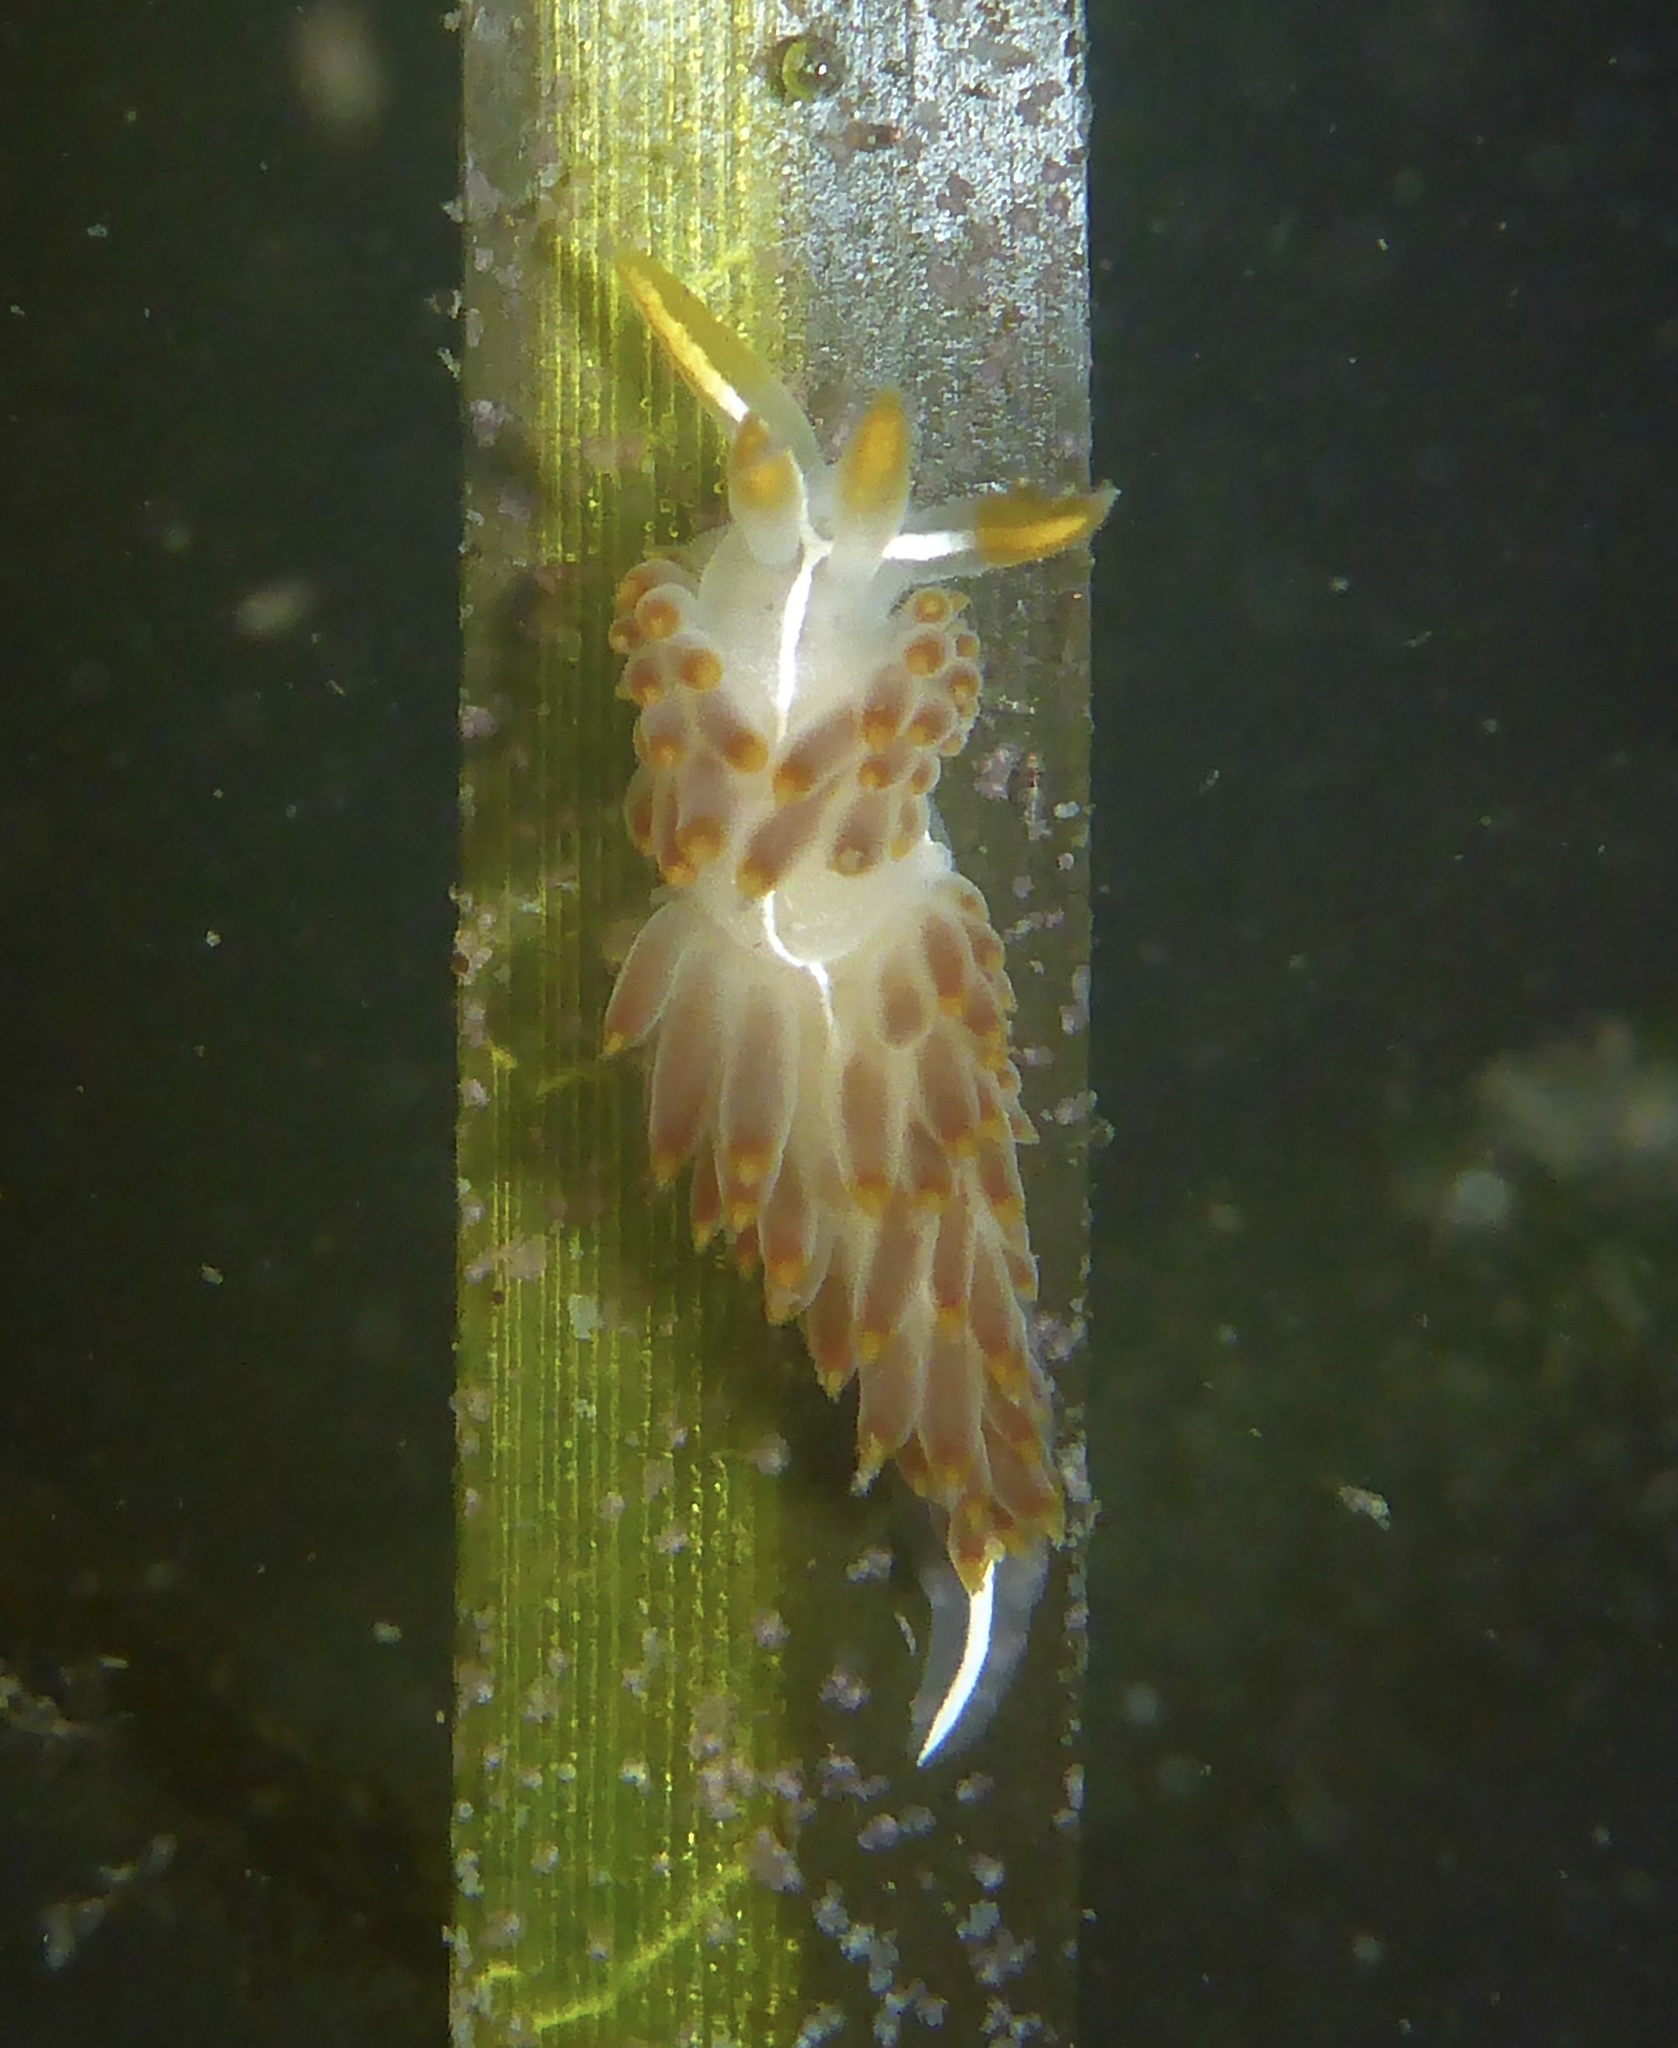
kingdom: Animalia
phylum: Mollusca
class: Gastropoda
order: Nudibranchia
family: Coryphellidae
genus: Coryphella
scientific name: Coryphella trilineata
